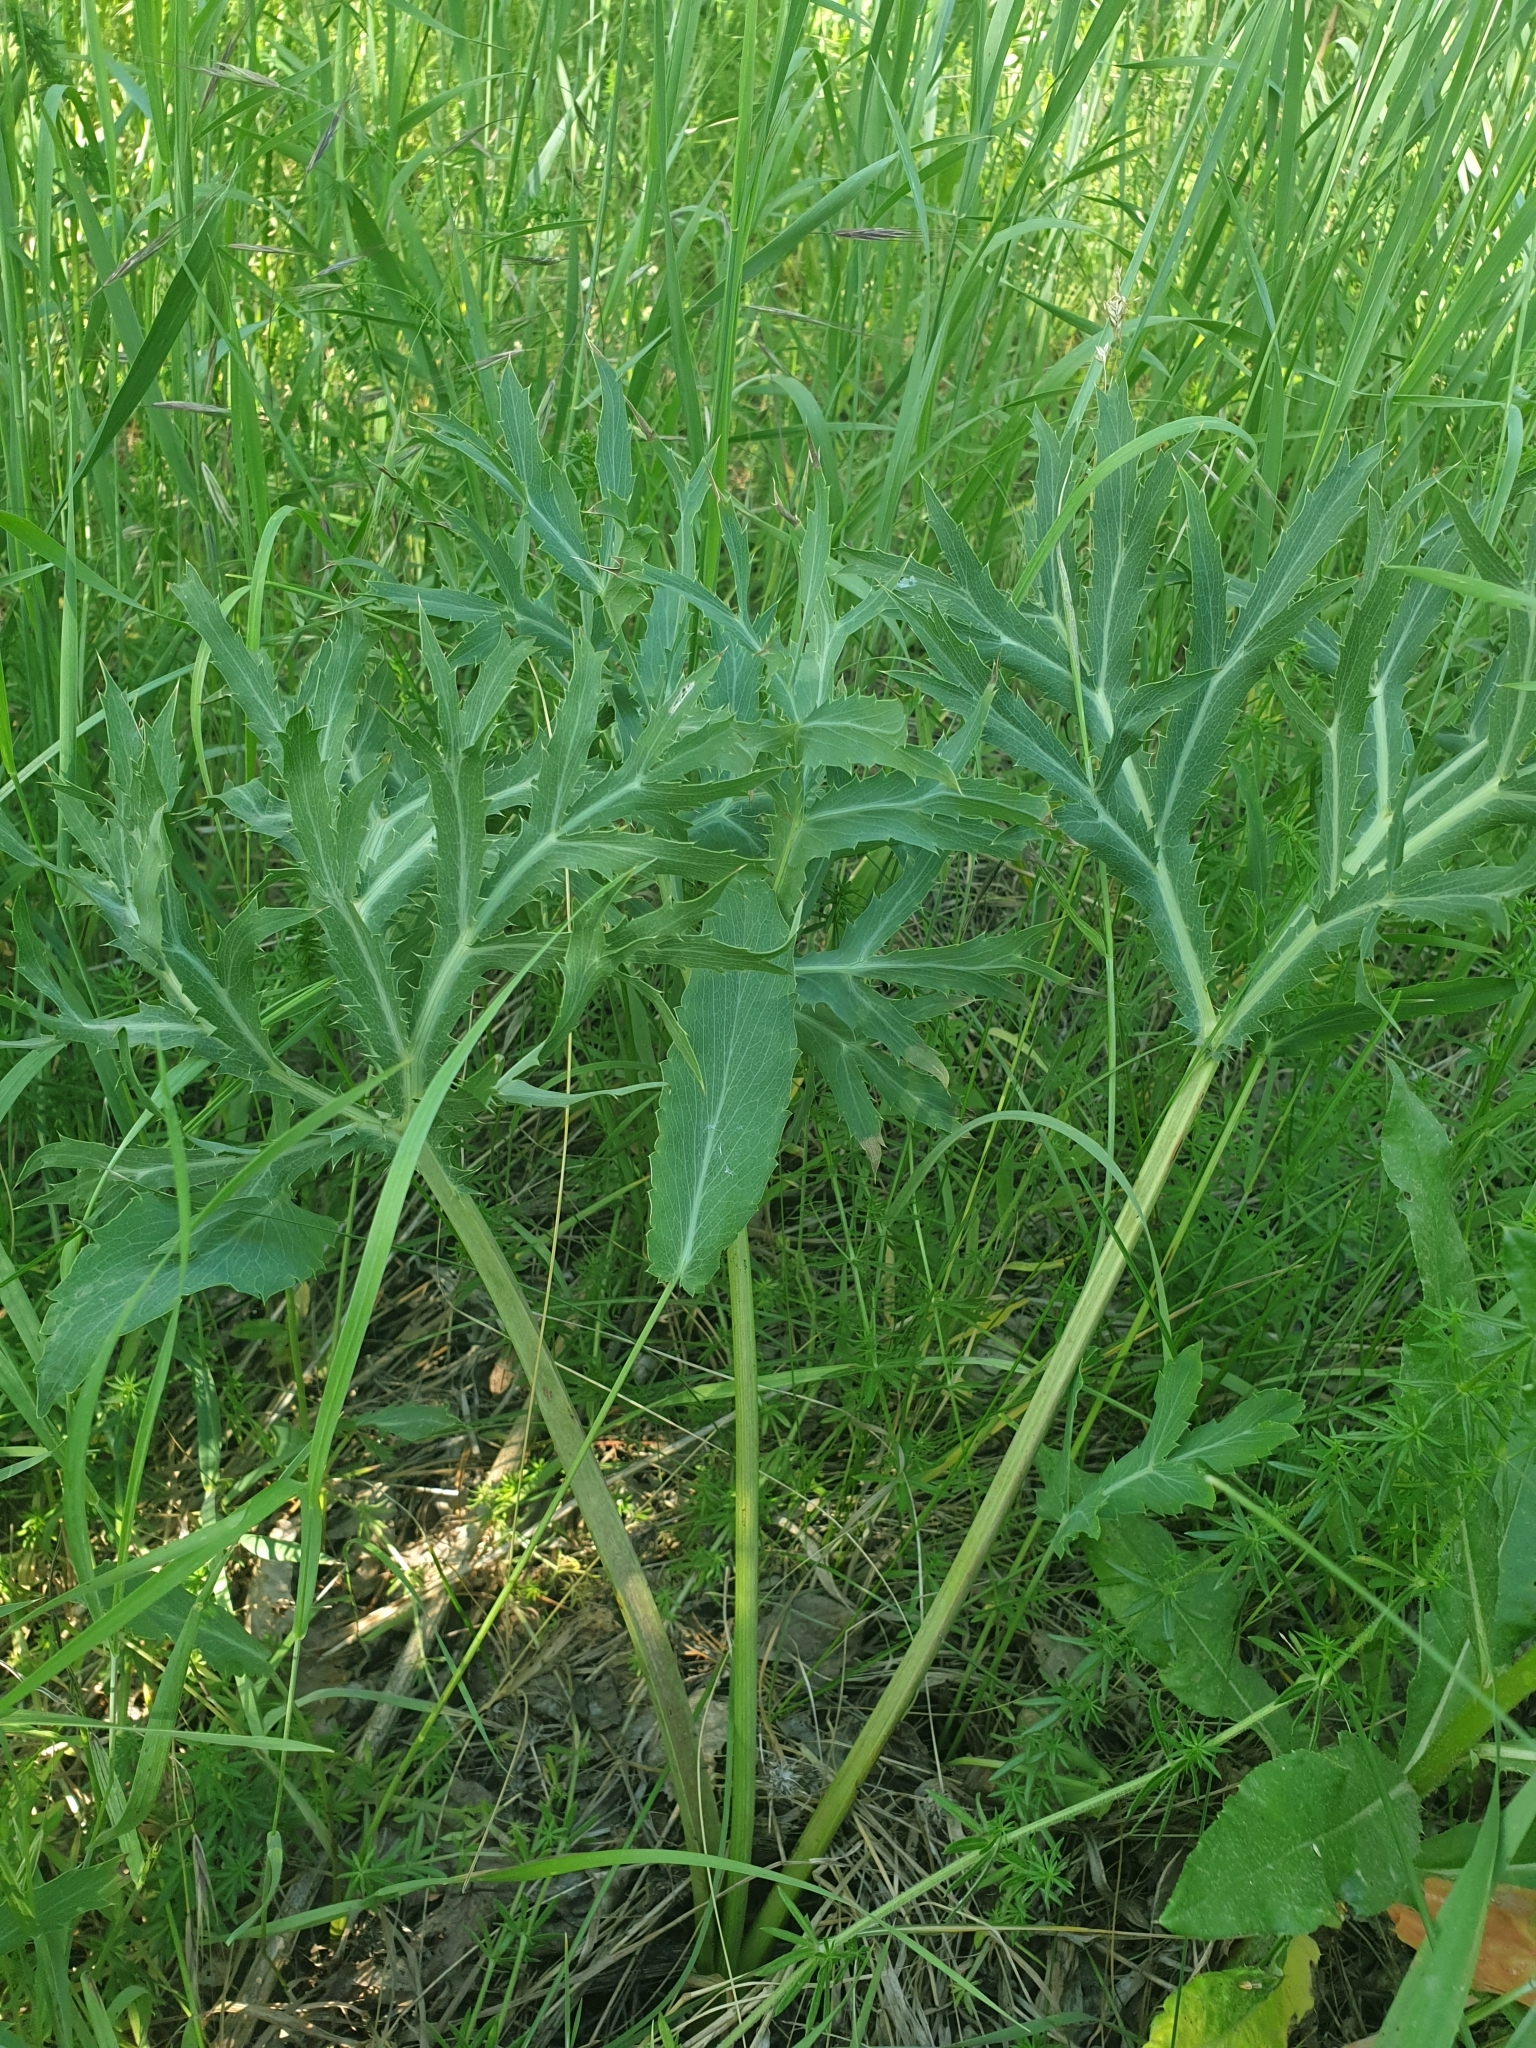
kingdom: Plantae
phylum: Tracheophyta
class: Magnoliopsida
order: Apiales
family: Apiaceae
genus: Eryngium
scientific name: Eryngium campestre
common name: Field eryngo
